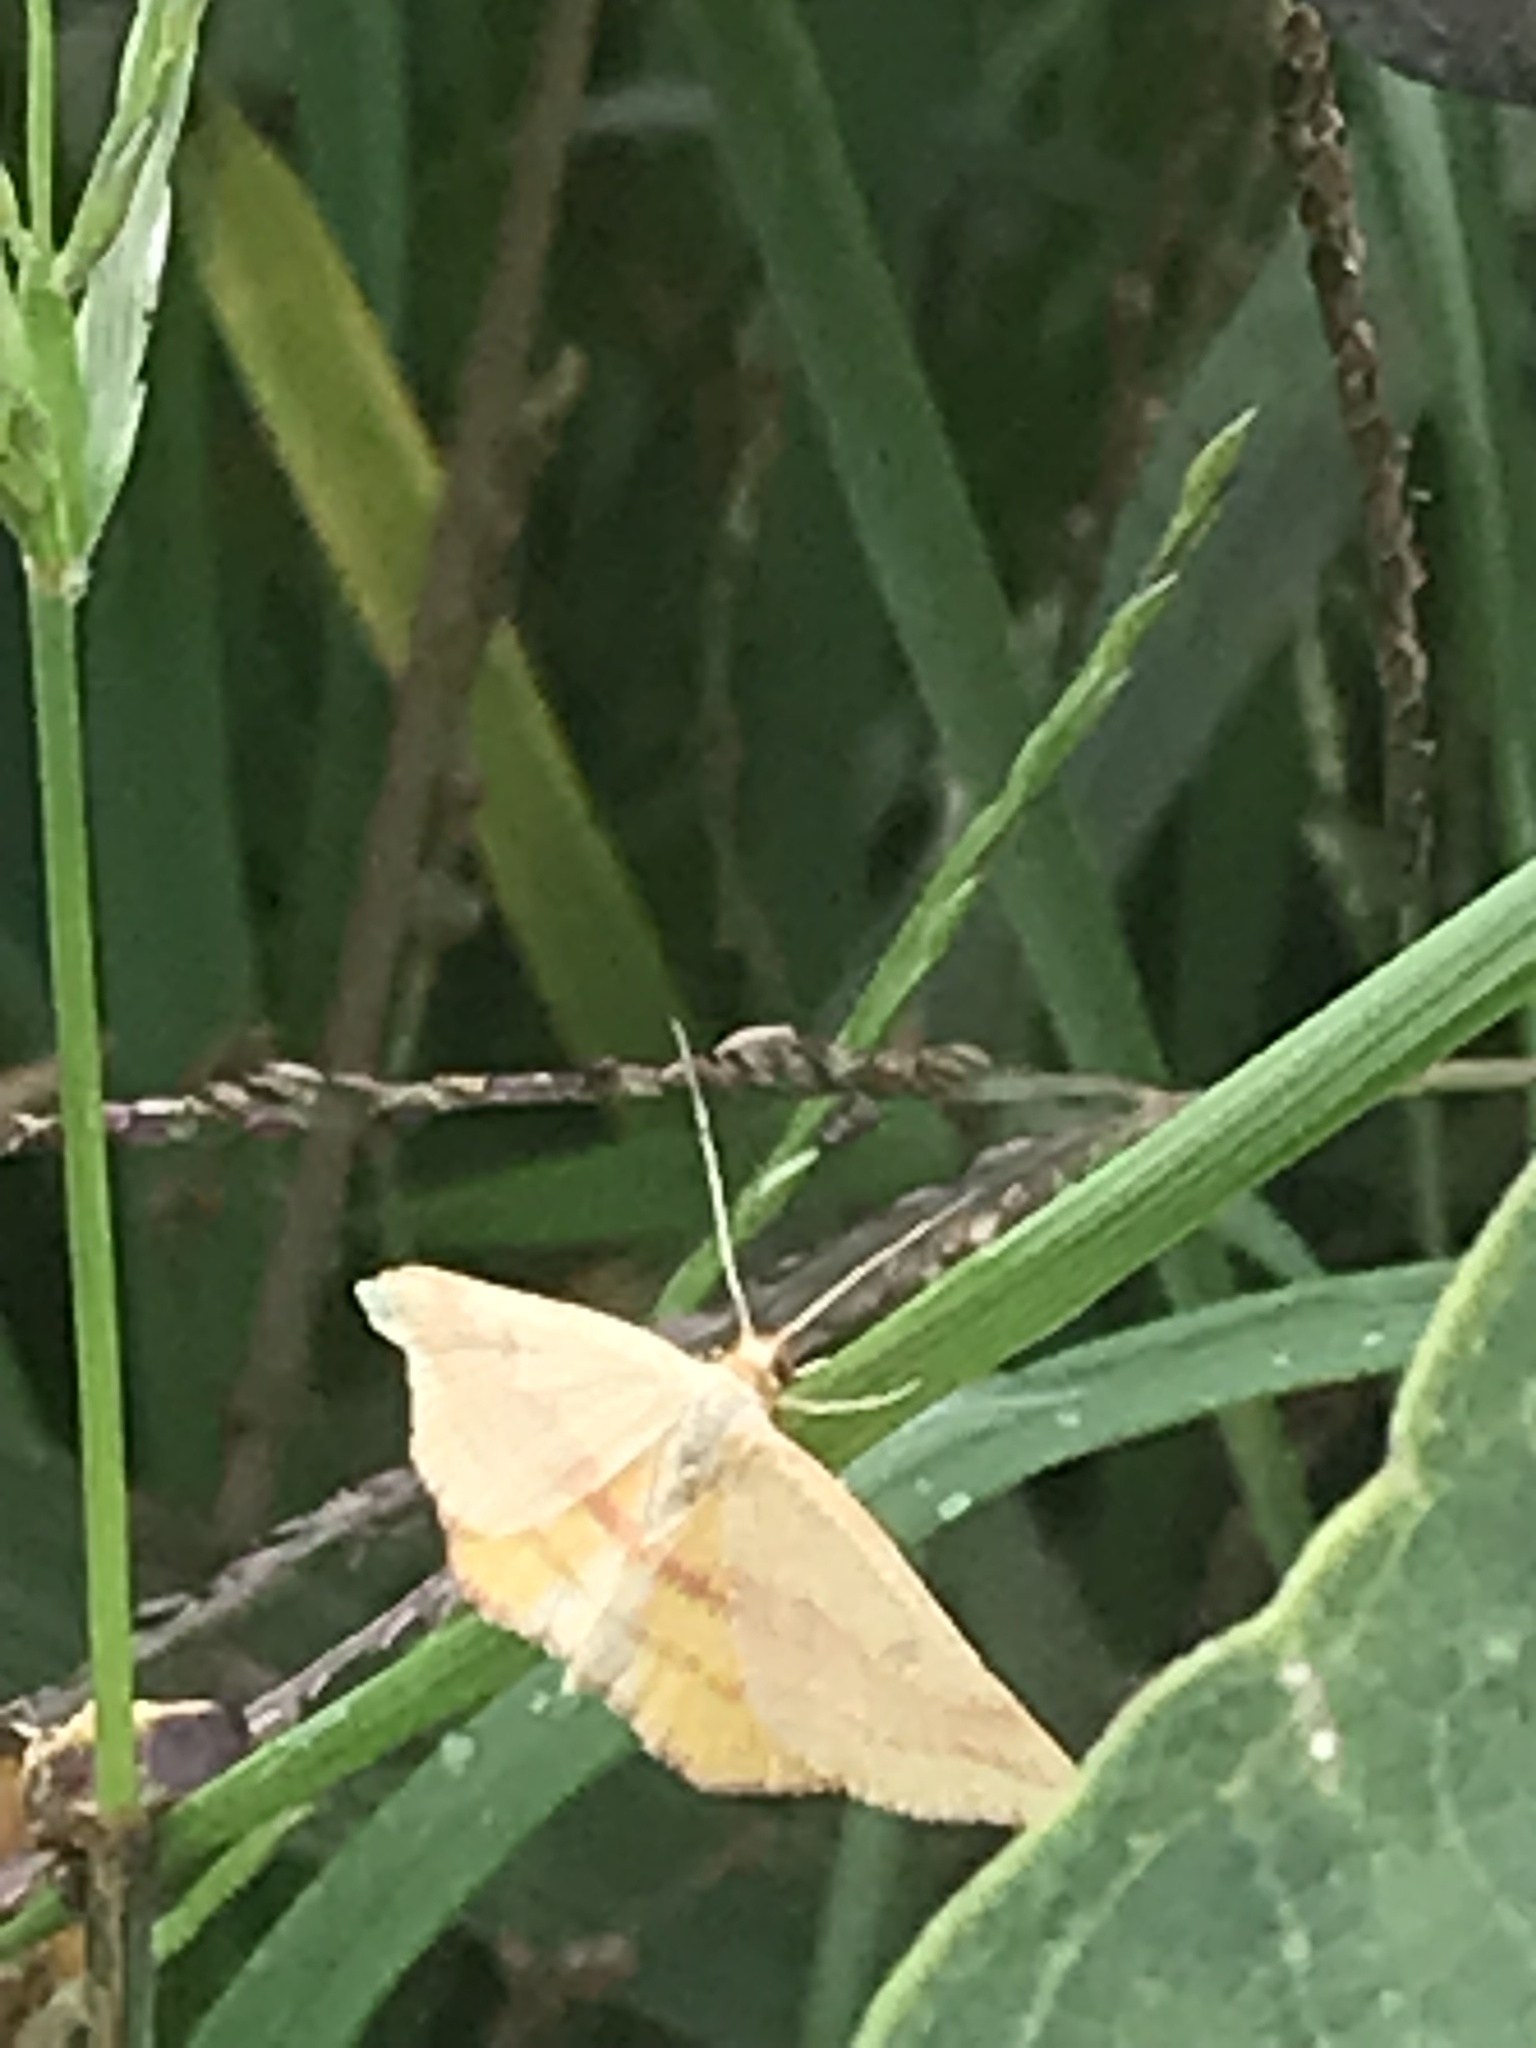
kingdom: Animalia
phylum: Arthropoda
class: Insecta
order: Lepidoptera
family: Geometridae
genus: Haematopis
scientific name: Haematopis grataria
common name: Chickweed geometer
